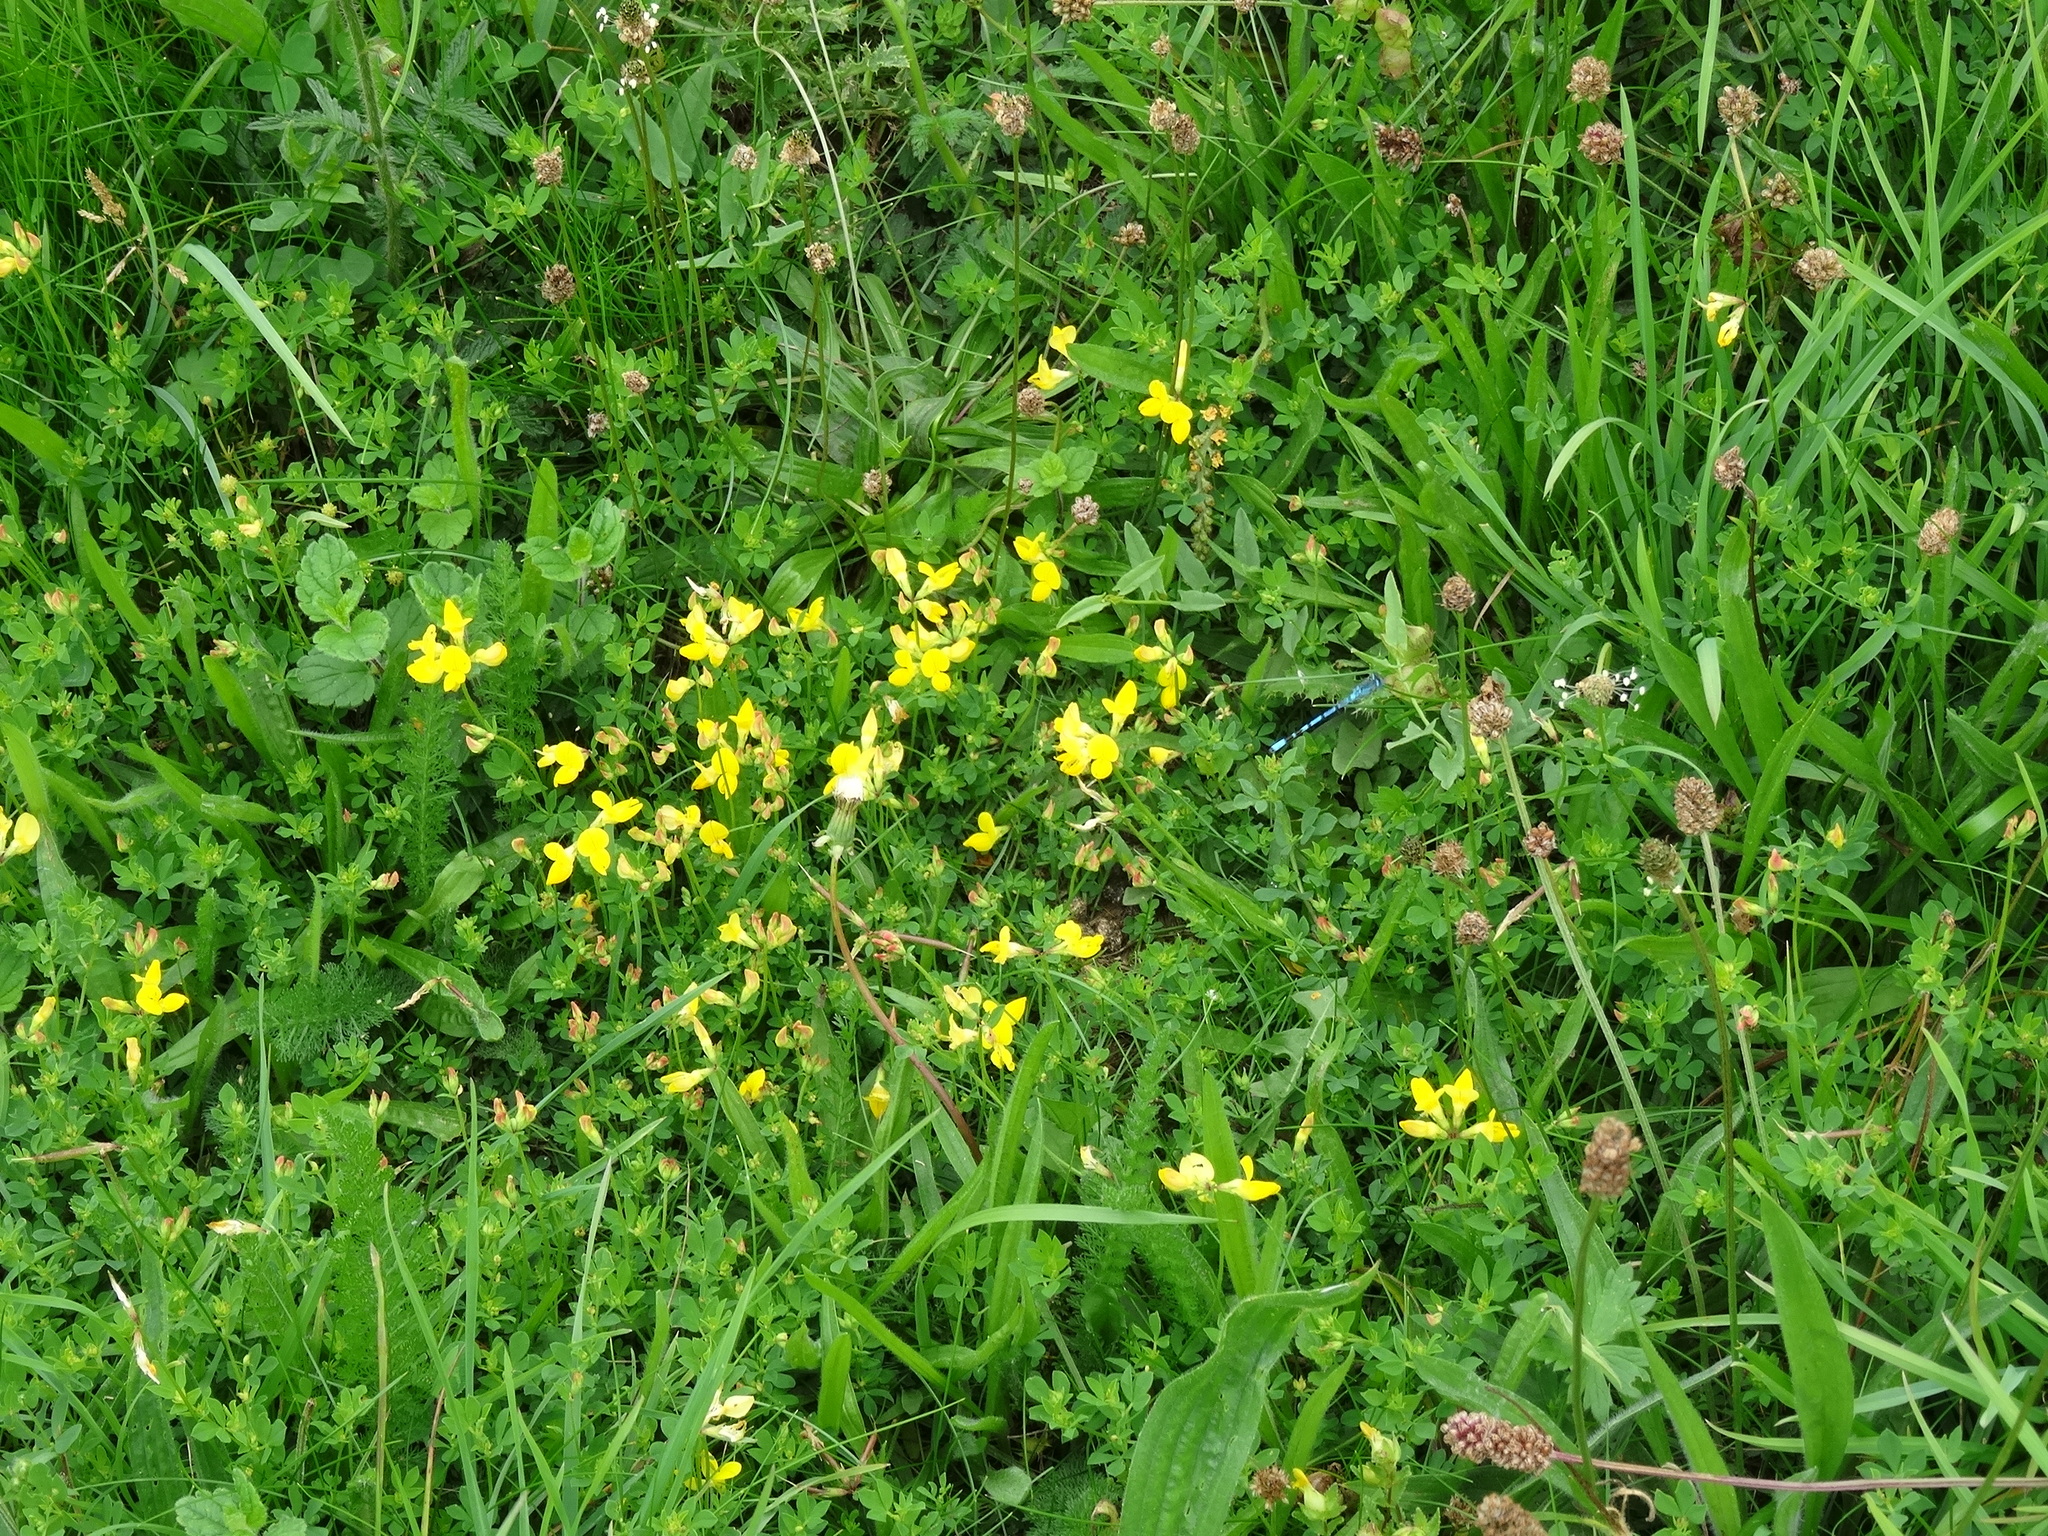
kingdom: Plantae
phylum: Tracheophyta
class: Magnoliopsida
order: Fabales
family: Fabaceae
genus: Lotus
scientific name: Lotus corniculatus
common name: Common bird's-foot-trefoil
